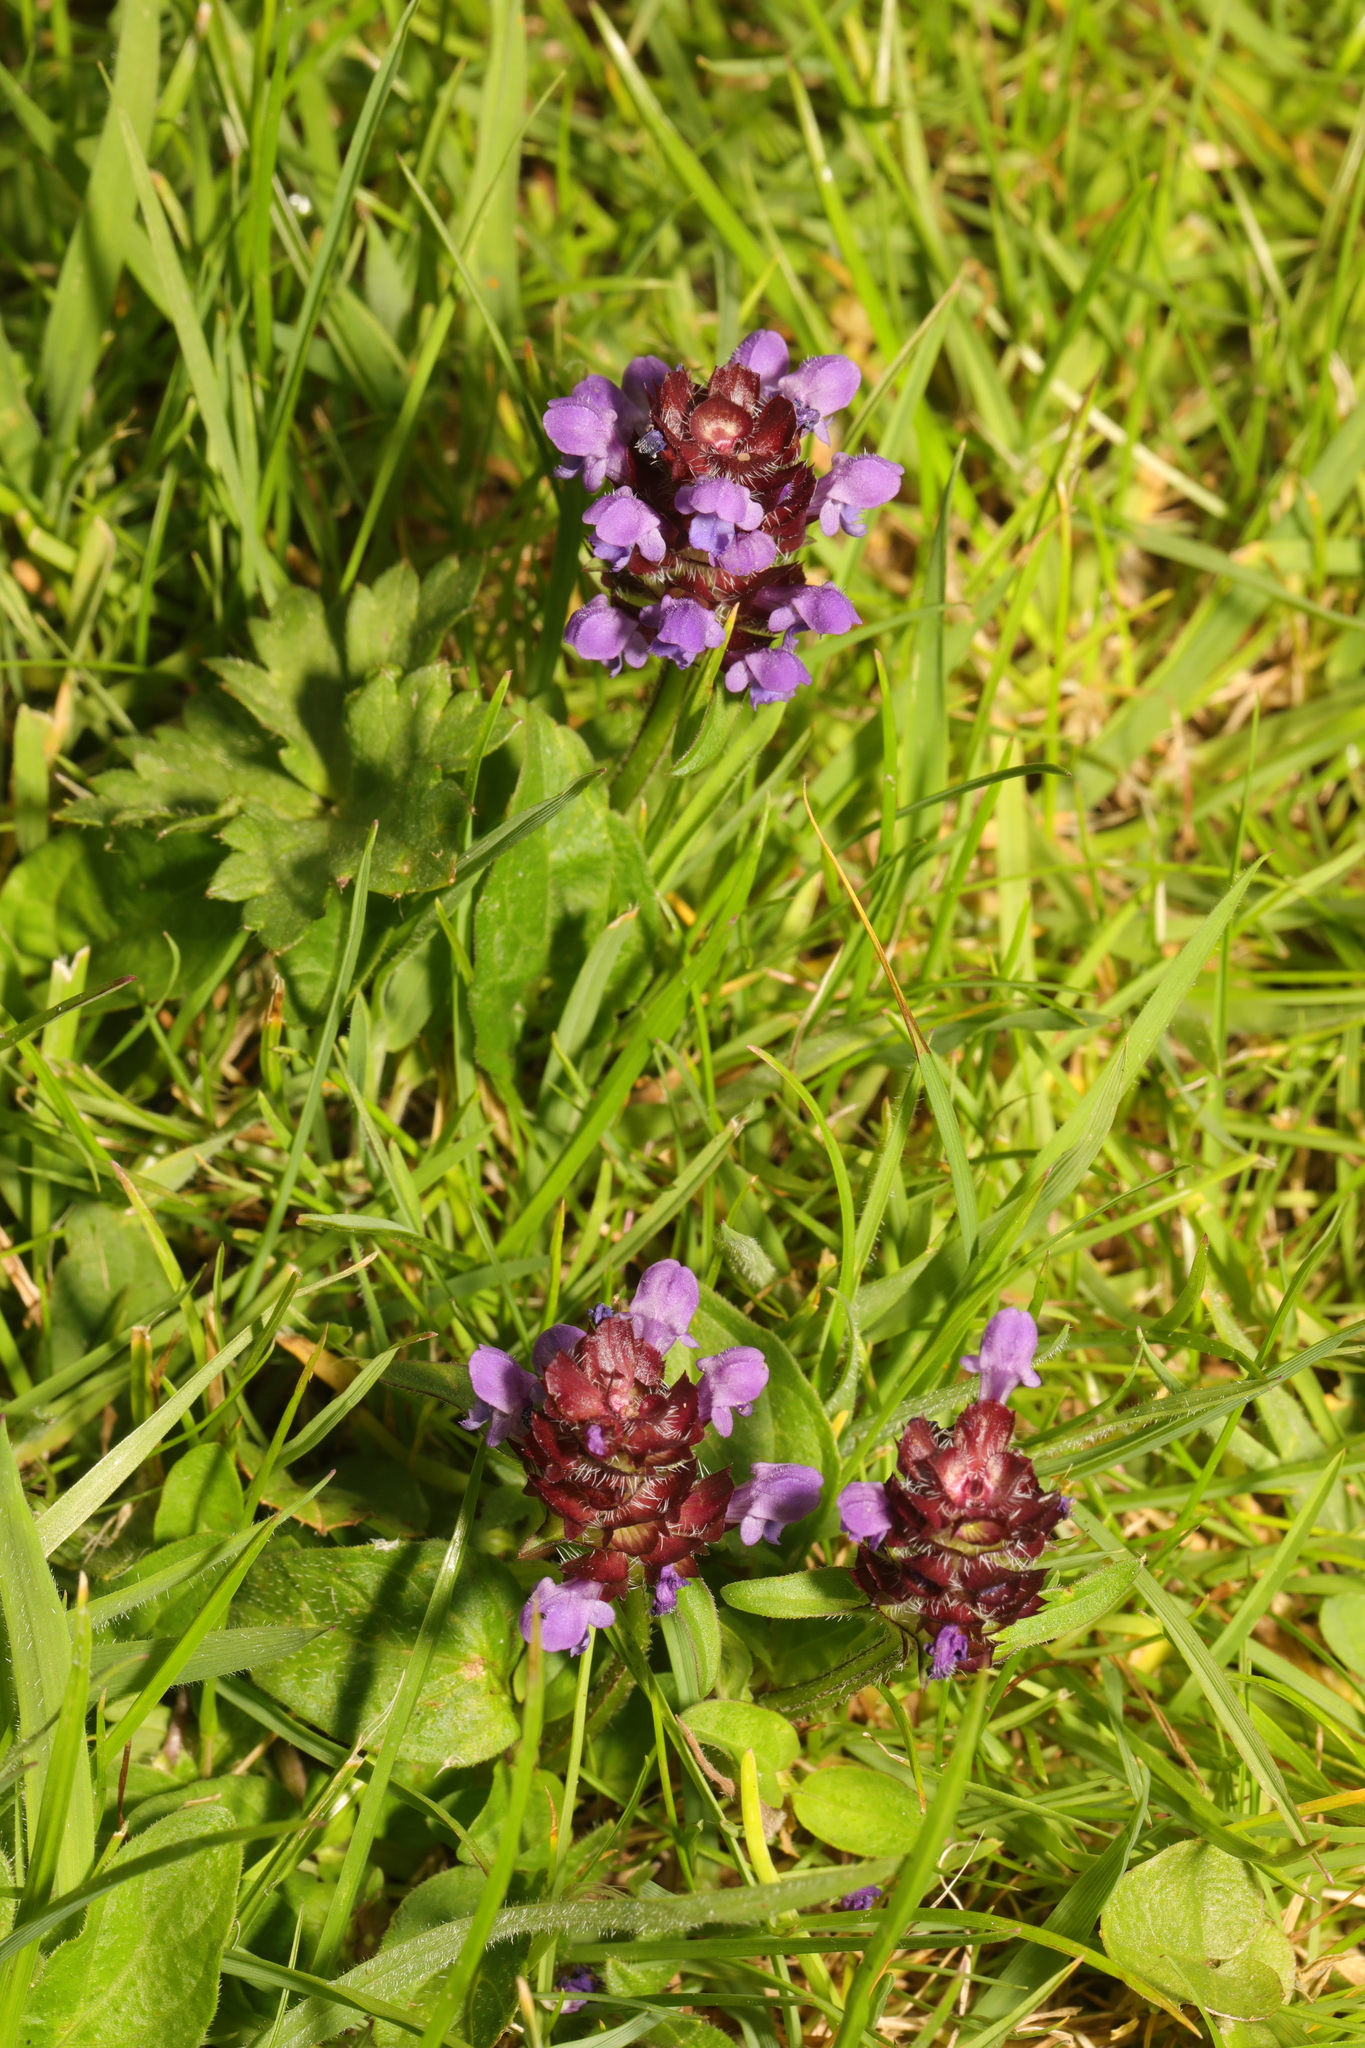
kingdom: Plantae
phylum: Tracheophyta
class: Magnoliopsida
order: Lamiales
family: Lamiaceae
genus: Prunella
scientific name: Prunella vulgaris
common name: Heal-all
